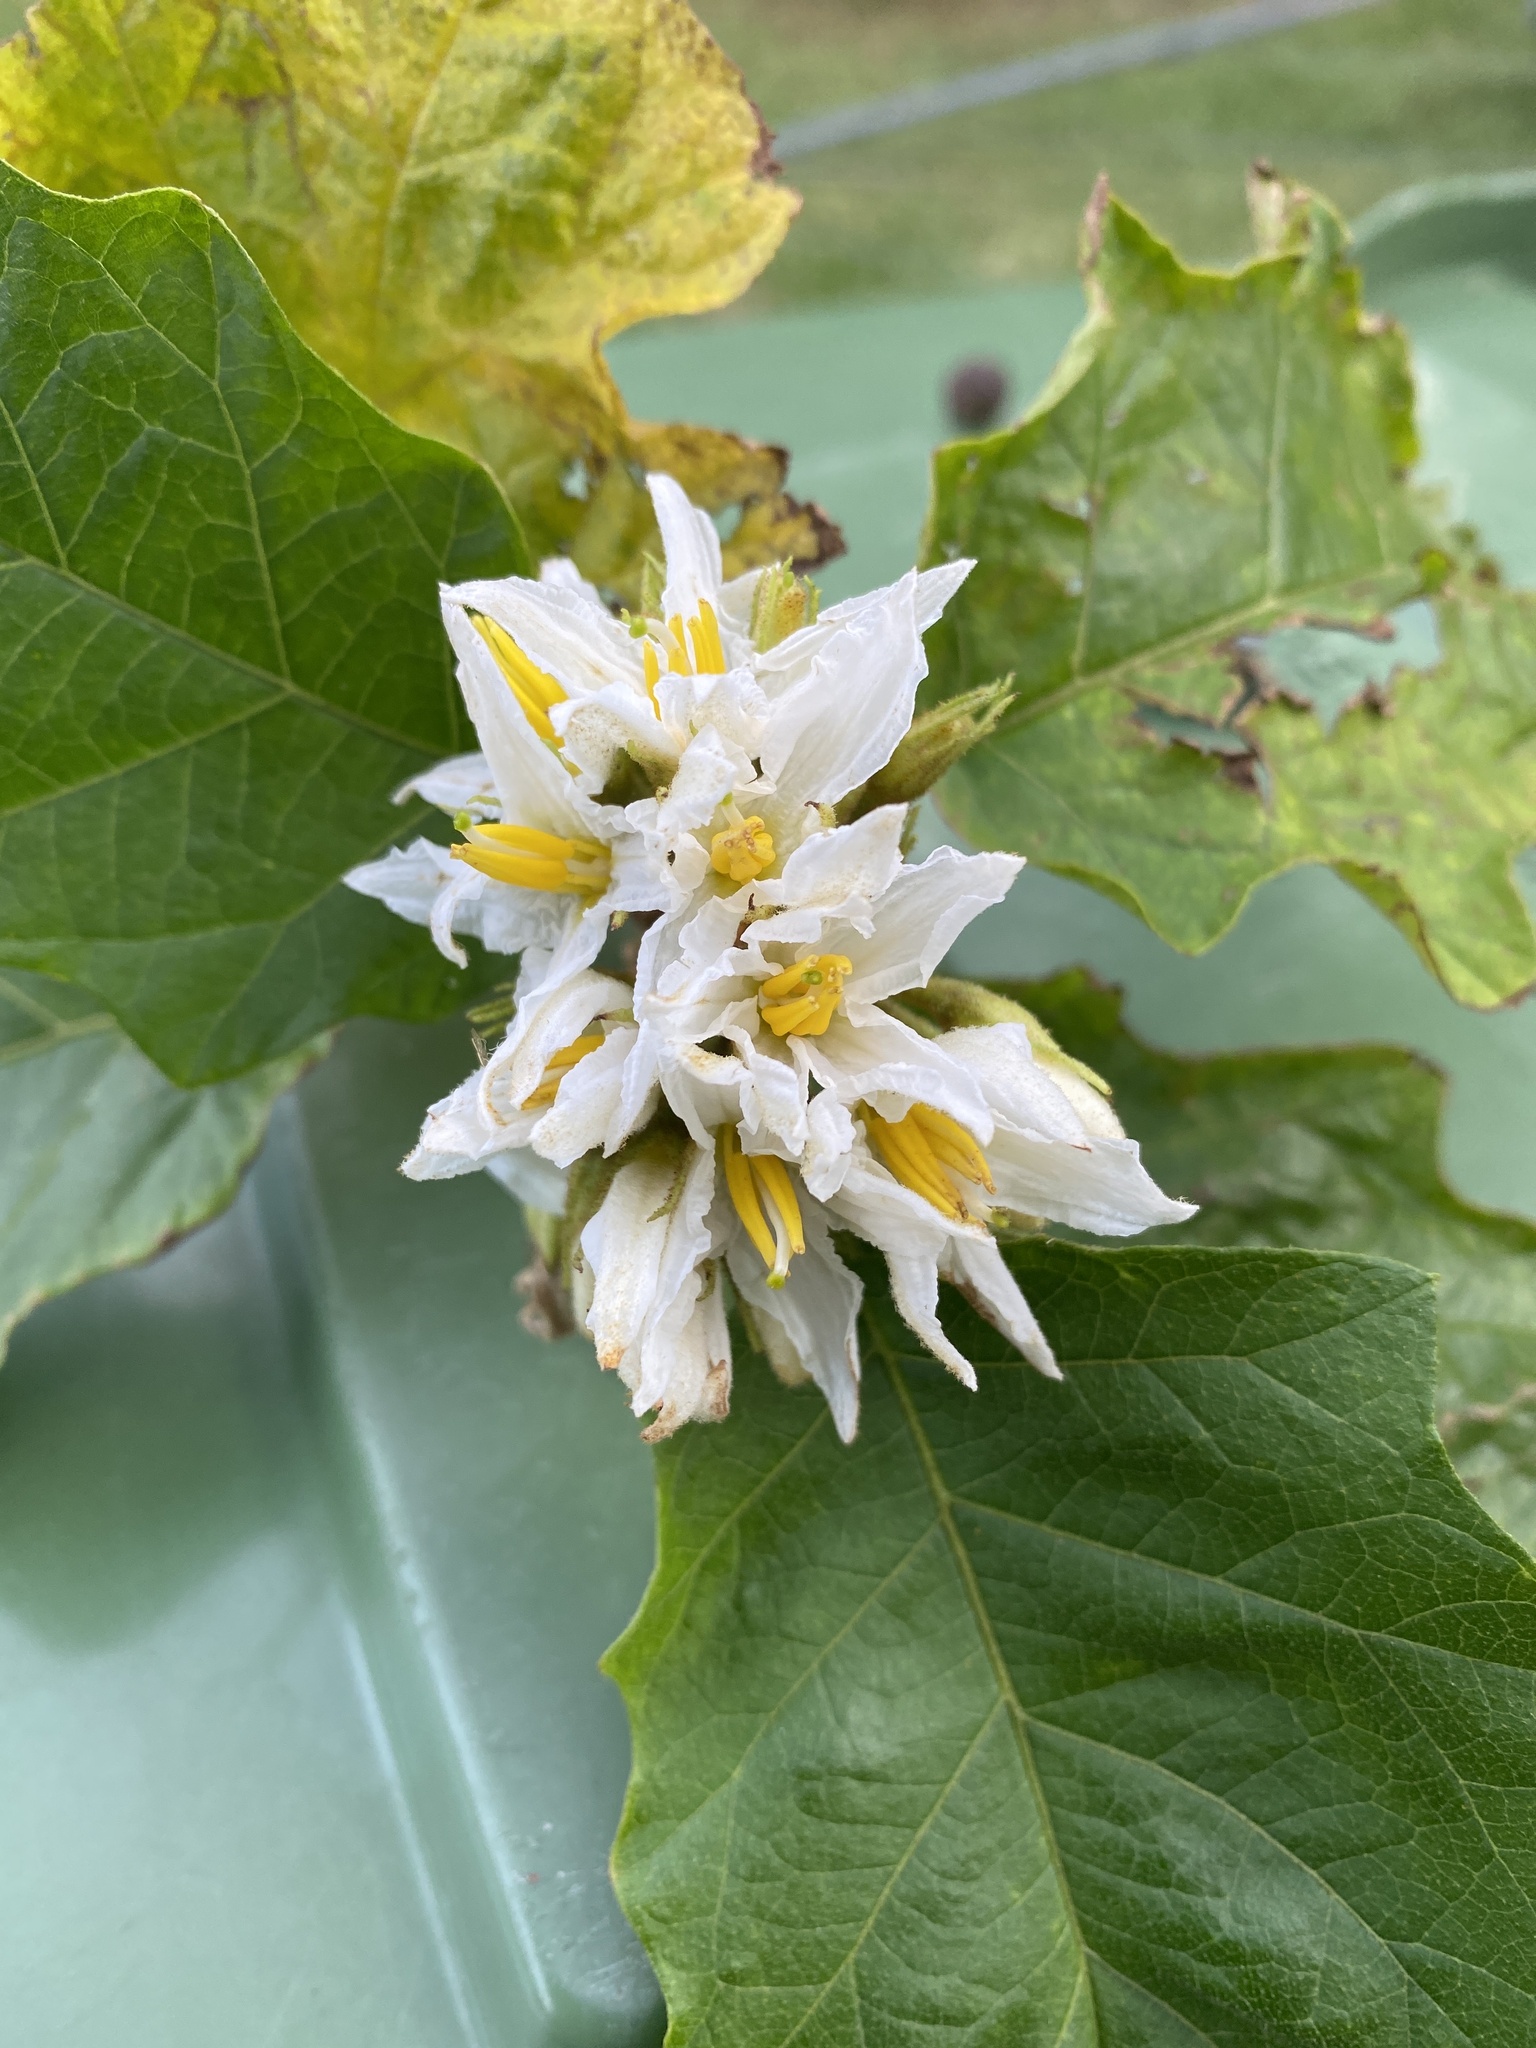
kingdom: Plantae
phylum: Tracheophyta
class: Magnoliopsida
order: Solanales
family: Solanaceae
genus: Solanum
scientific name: Solanum chrysotrichum
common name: Nightshade
